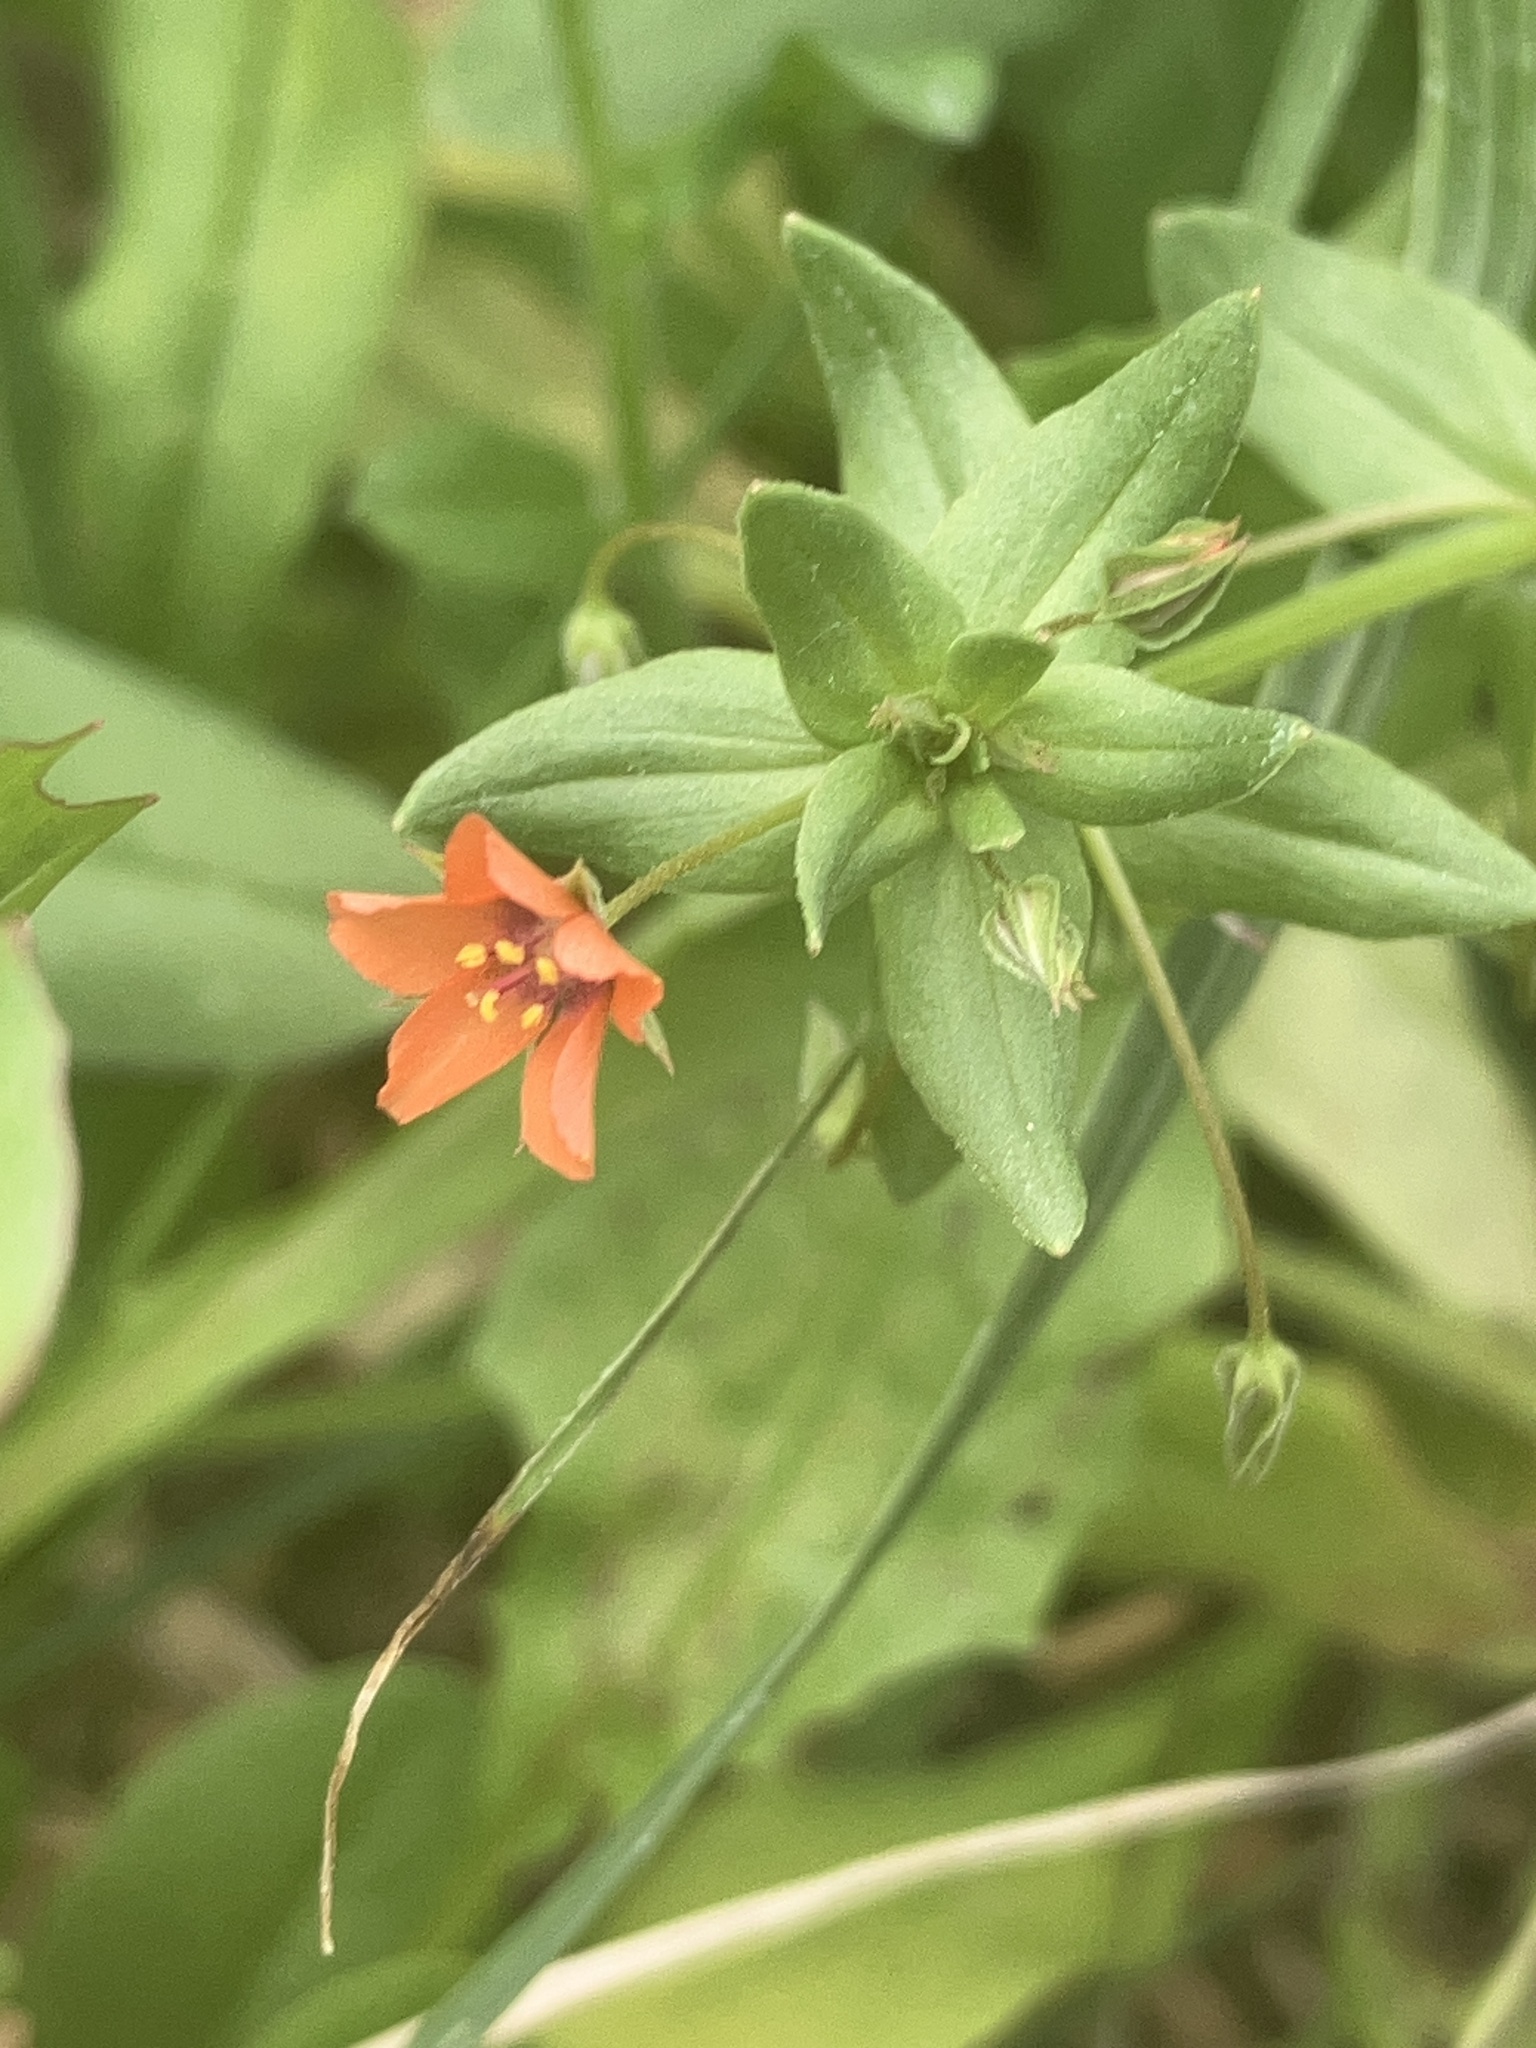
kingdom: Plantae
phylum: Tracheophyta
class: Magnoliopsida
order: Ericales
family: Primulaceae
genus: Lysimachia
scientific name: Lysimachia arvensis
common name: Scarlet pimpernel
